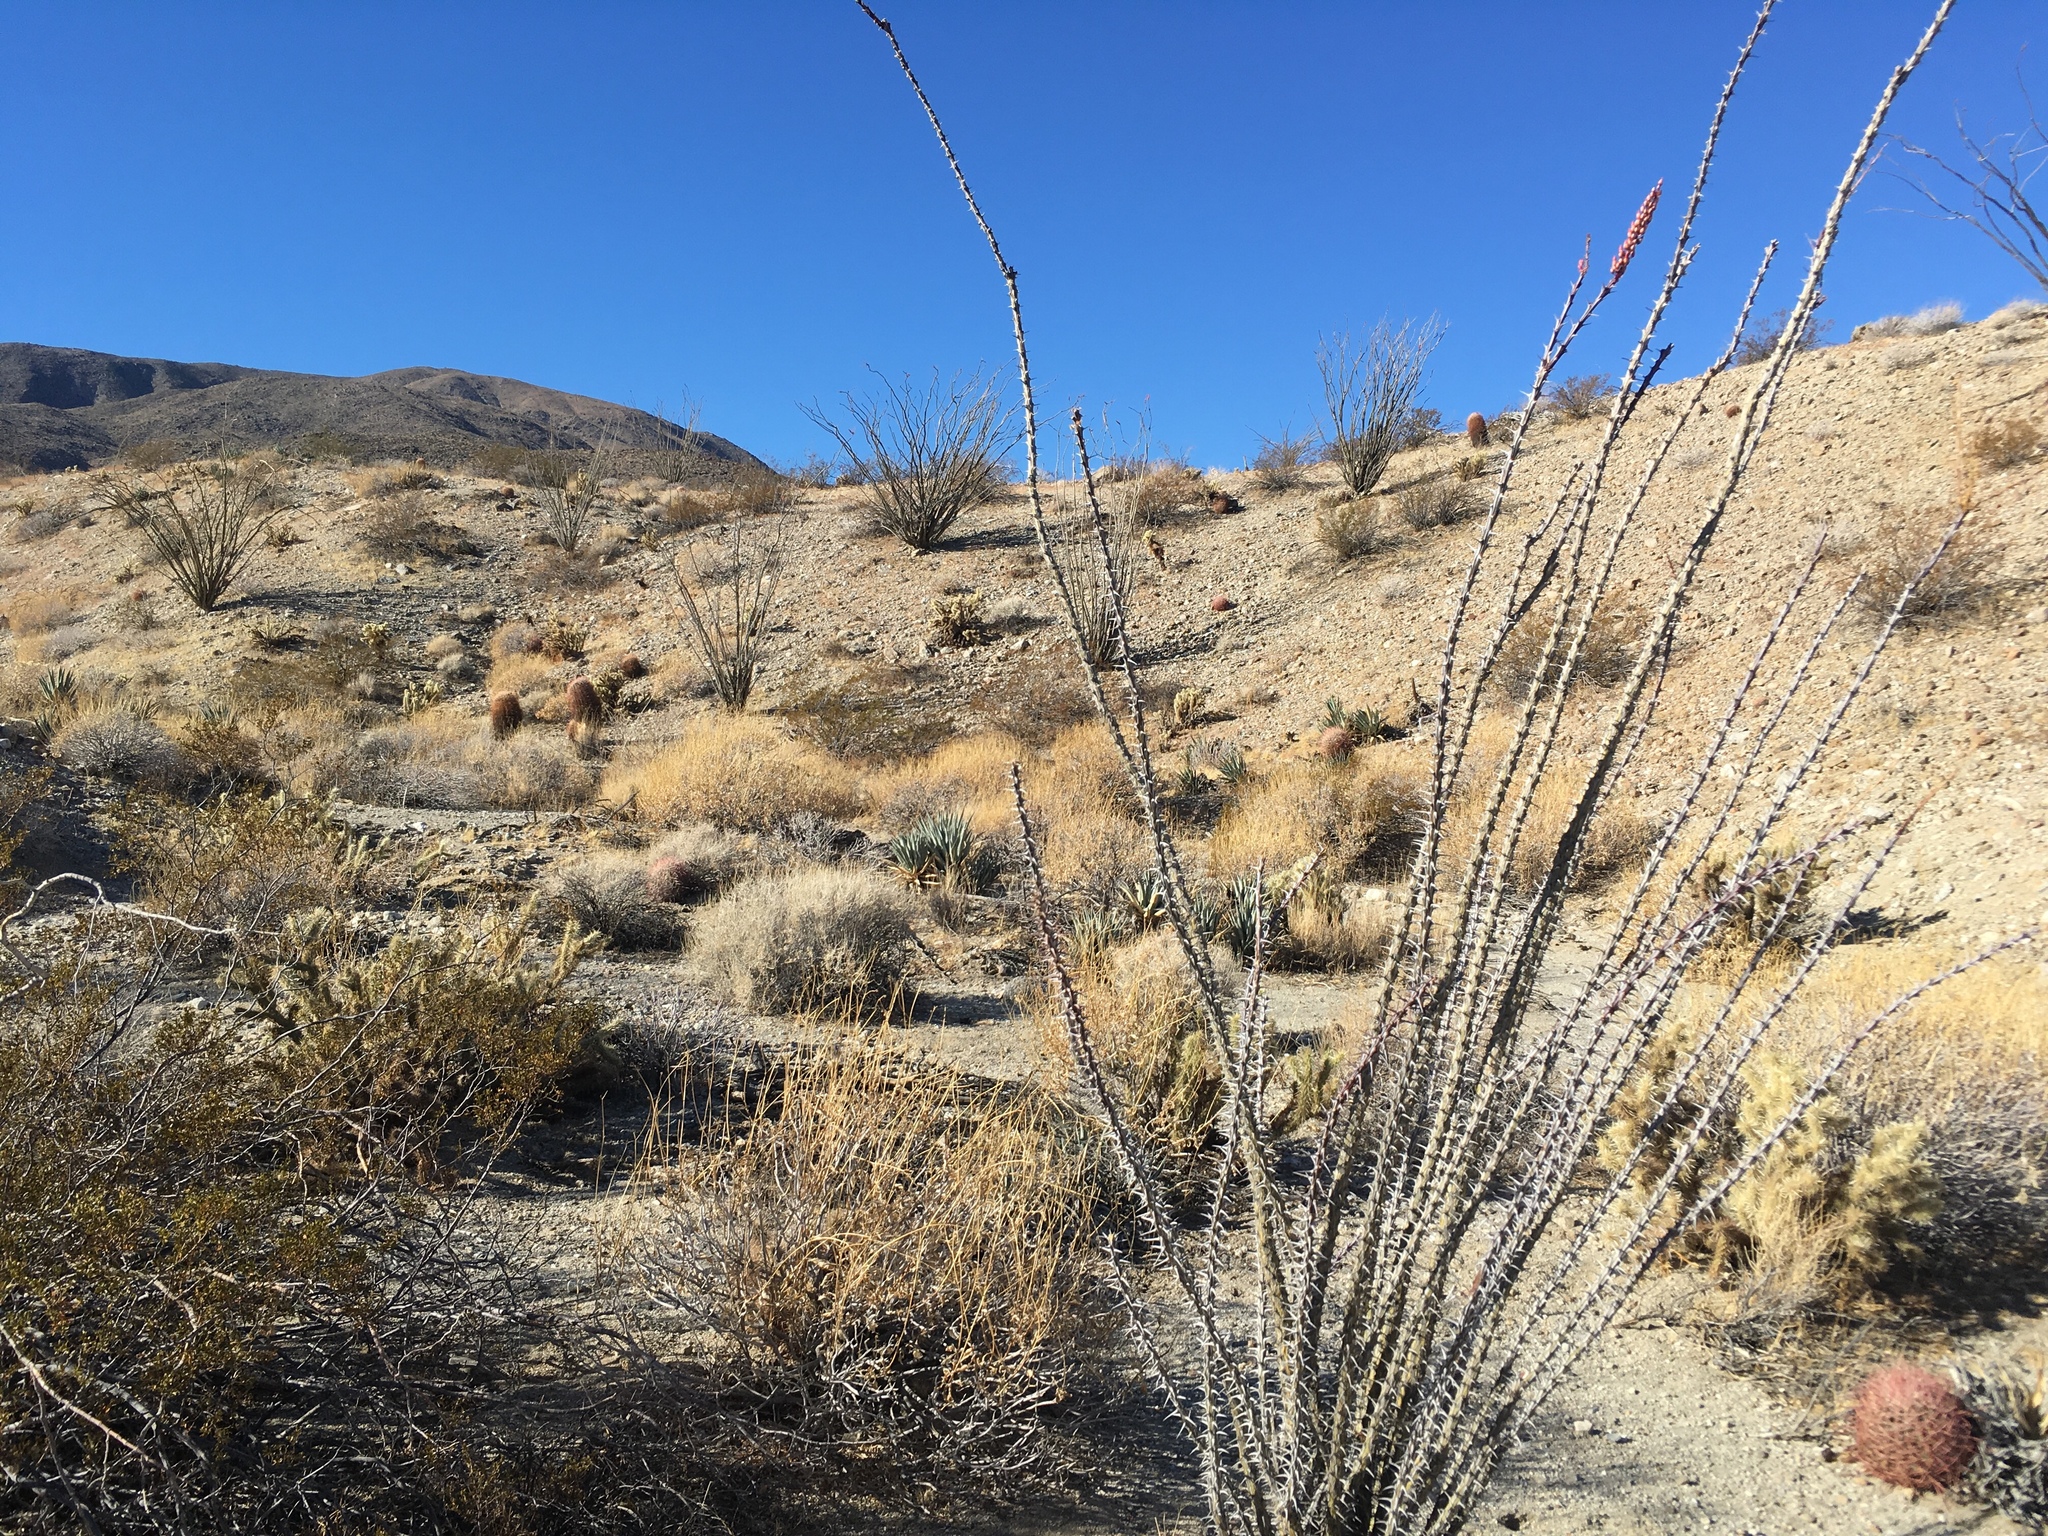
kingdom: Plantae
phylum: Tracheophyta
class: Magnoliopsida
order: Ericales
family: Fouquieriaceae
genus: Fouquieria
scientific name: Fouquieria splendens
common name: Vine-cactus
